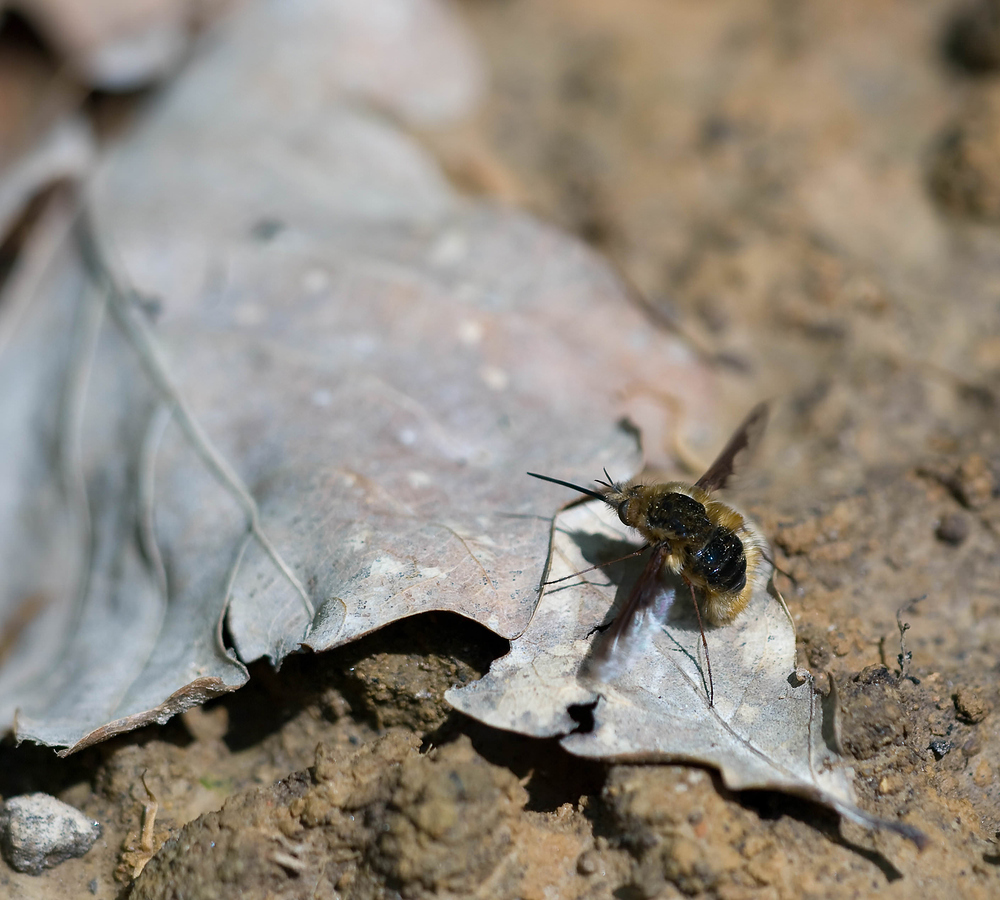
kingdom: Animalia
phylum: Arthropoda
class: Insecta
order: Diptera
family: Bombyliidae
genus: Bombylius
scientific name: Bombylius major
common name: Bee fly
